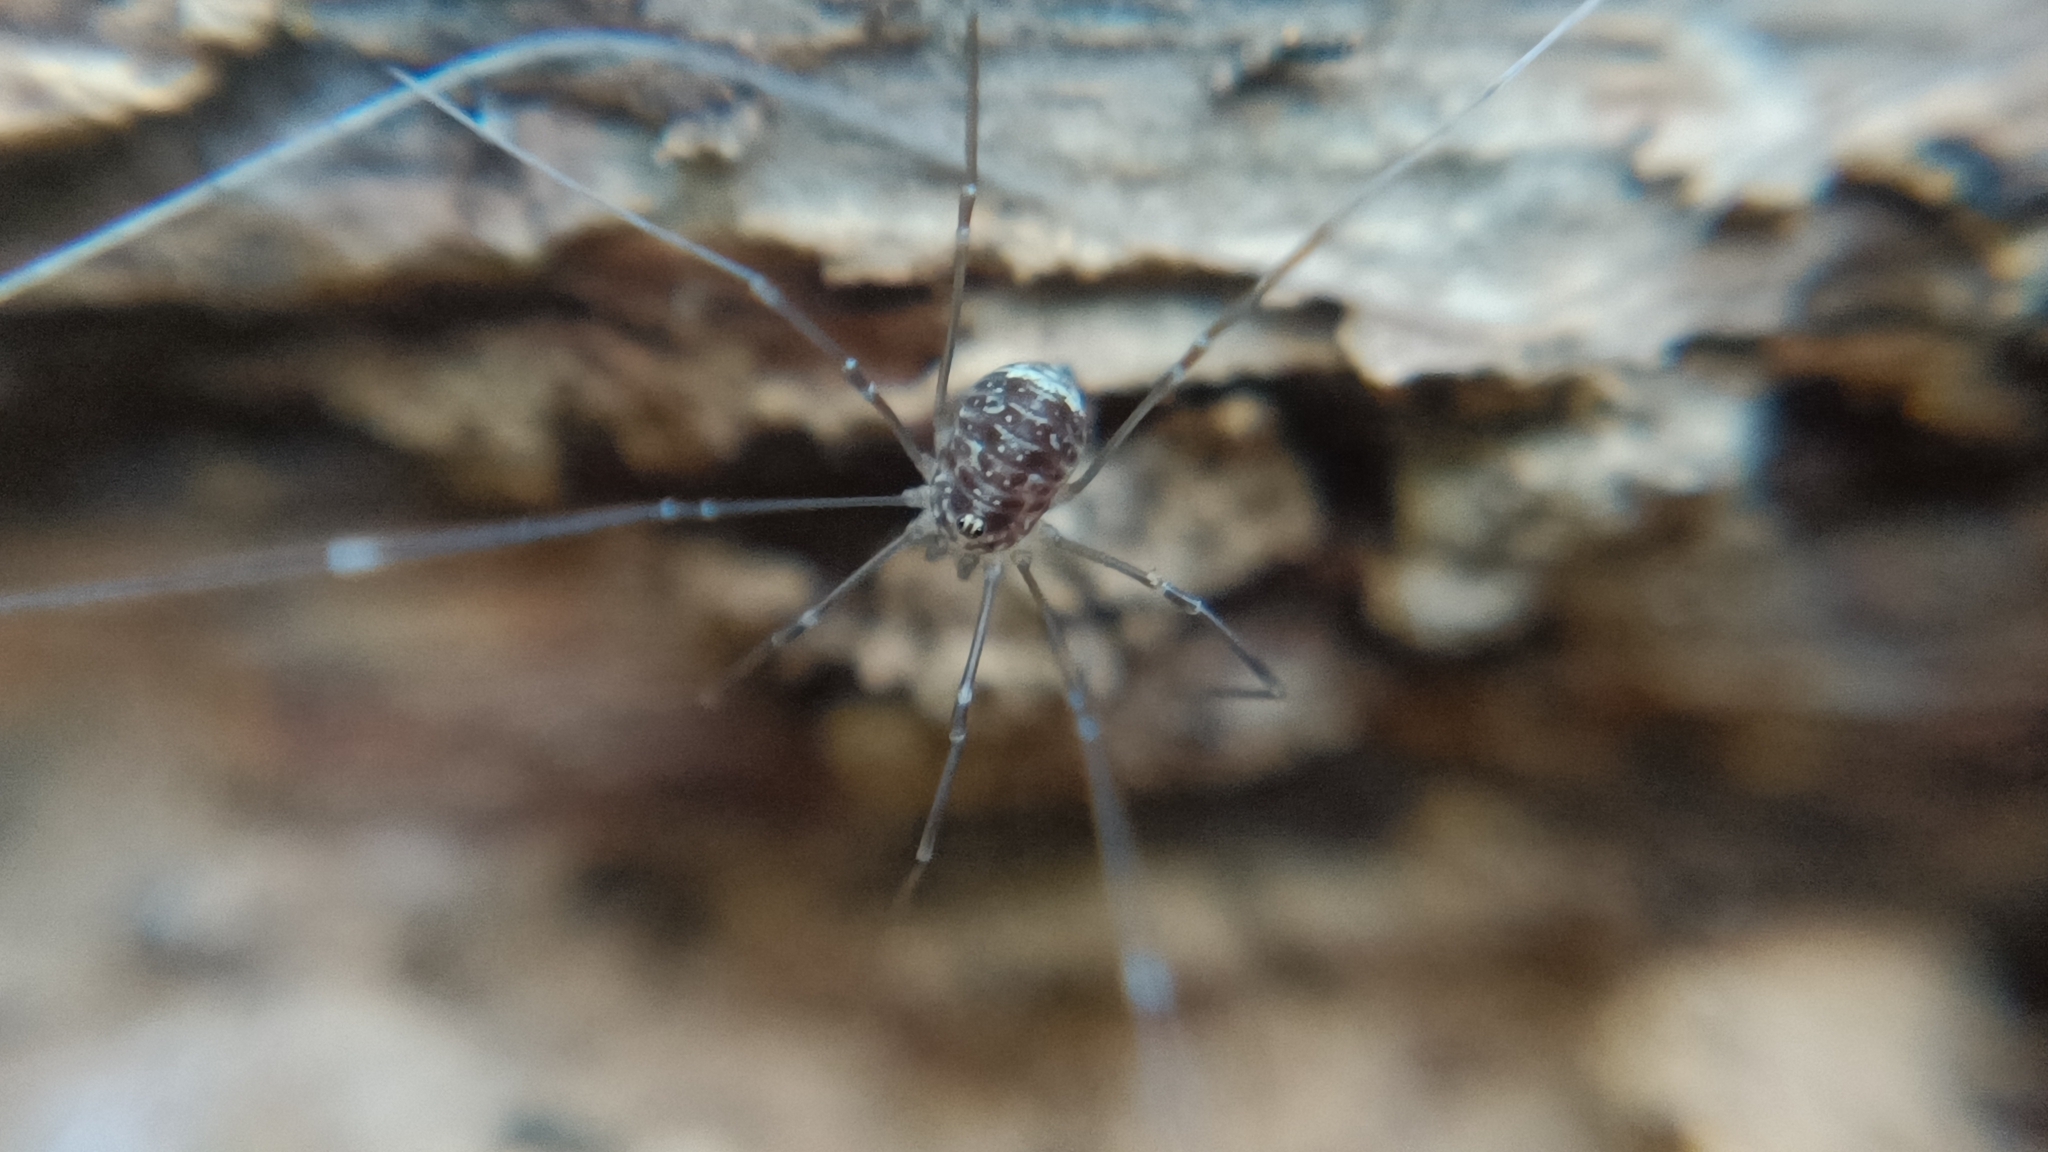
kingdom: Animalia
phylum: Arthropoda
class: Arachnida
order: Opiliones
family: Sclerosomatidae
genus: Leiobunum
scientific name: Leiobunum blackwalli
